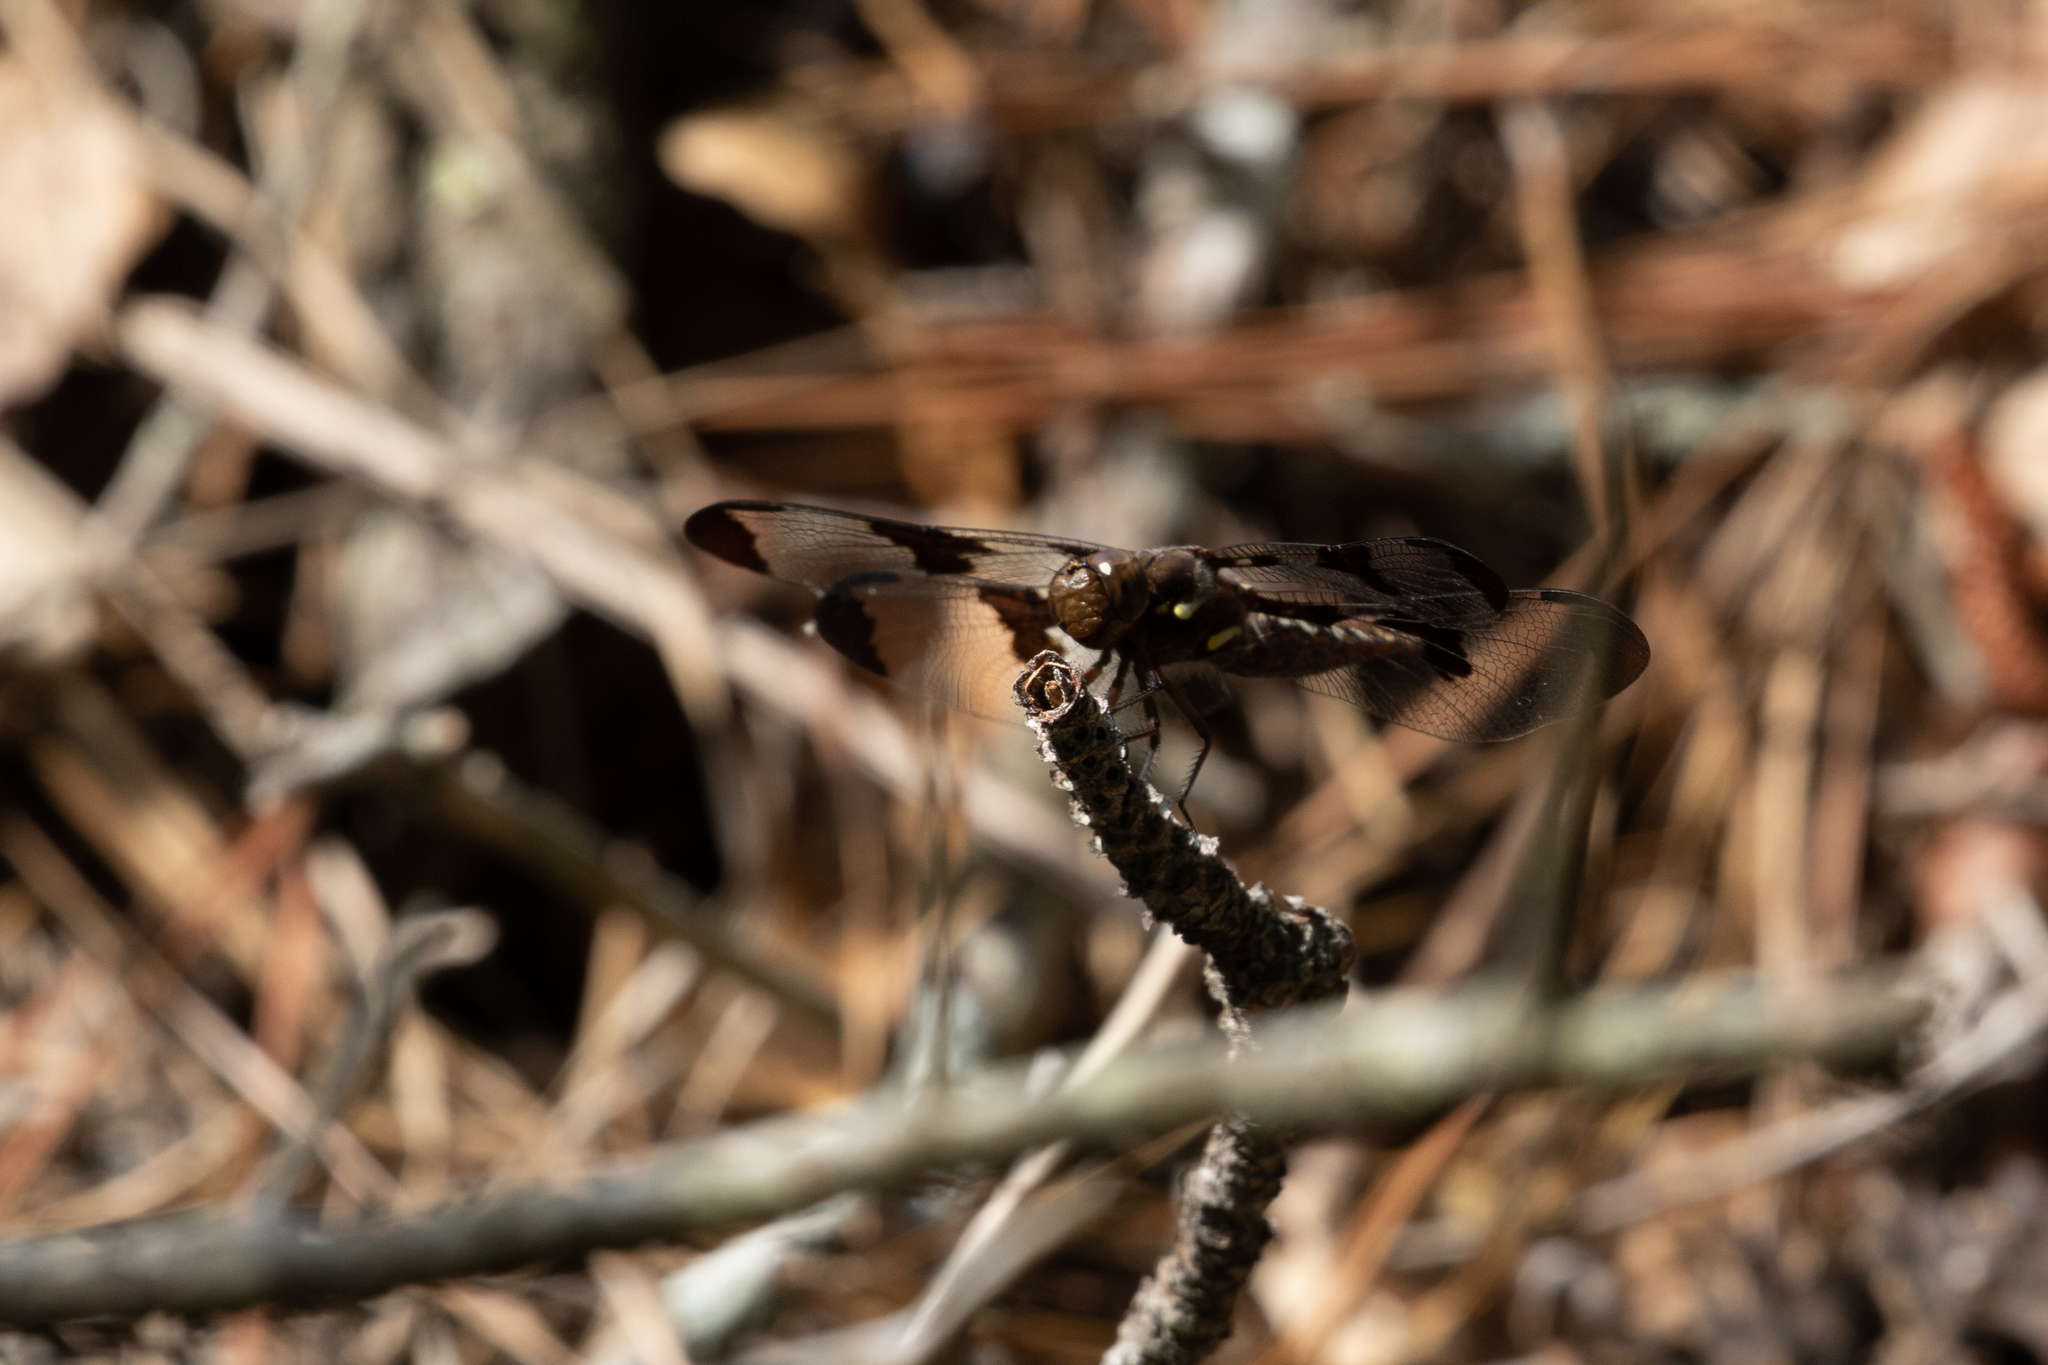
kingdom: Animalia
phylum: Arthropoda
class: Insecta
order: Odonata
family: Libellulidae
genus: Plathemis
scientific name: Plathemis lydia
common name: Common whitetail
